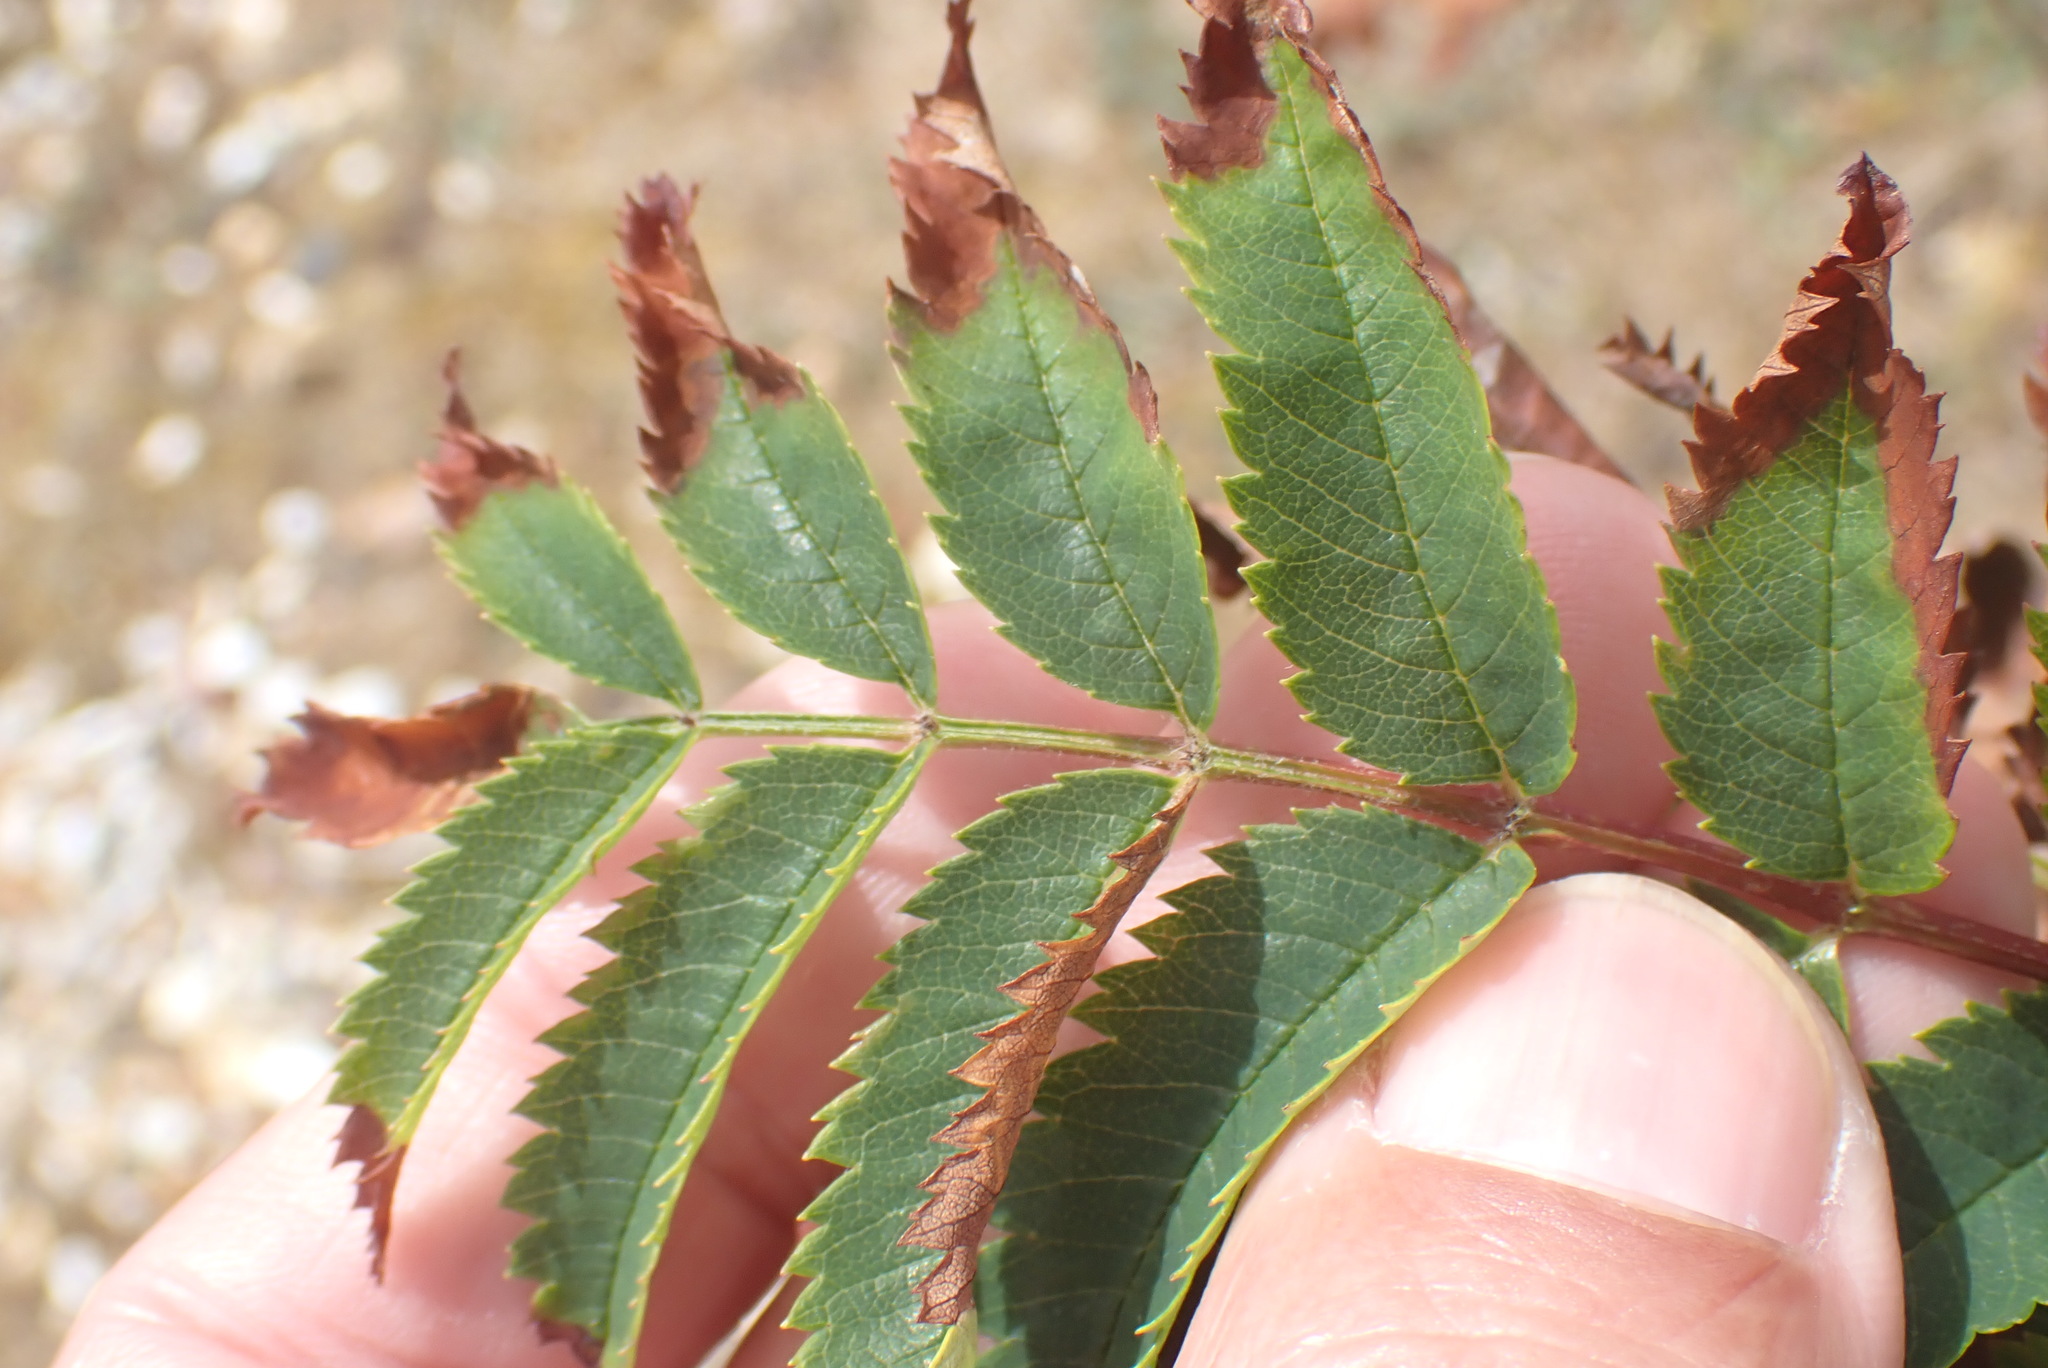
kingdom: Plantae
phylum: Tracheophyta
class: Magnoliopsida
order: Rosales
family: Rosaceae
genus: Sorbus
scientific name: Sorbus aucuparia
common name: Rowan
